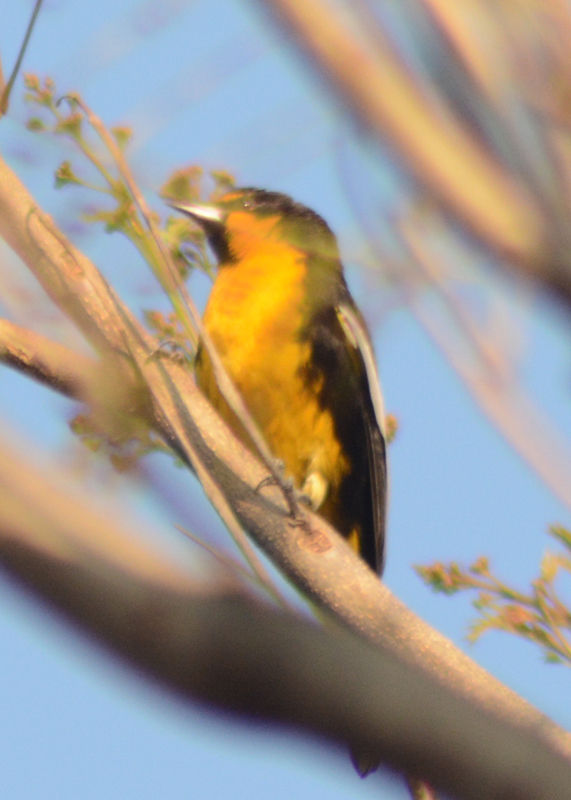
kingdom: Animalia
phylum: Chordata
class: Aves
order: Passeriformes
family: Icteridae
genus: Icterus
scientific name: Icterus abeillei
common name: Black-backed oriole
